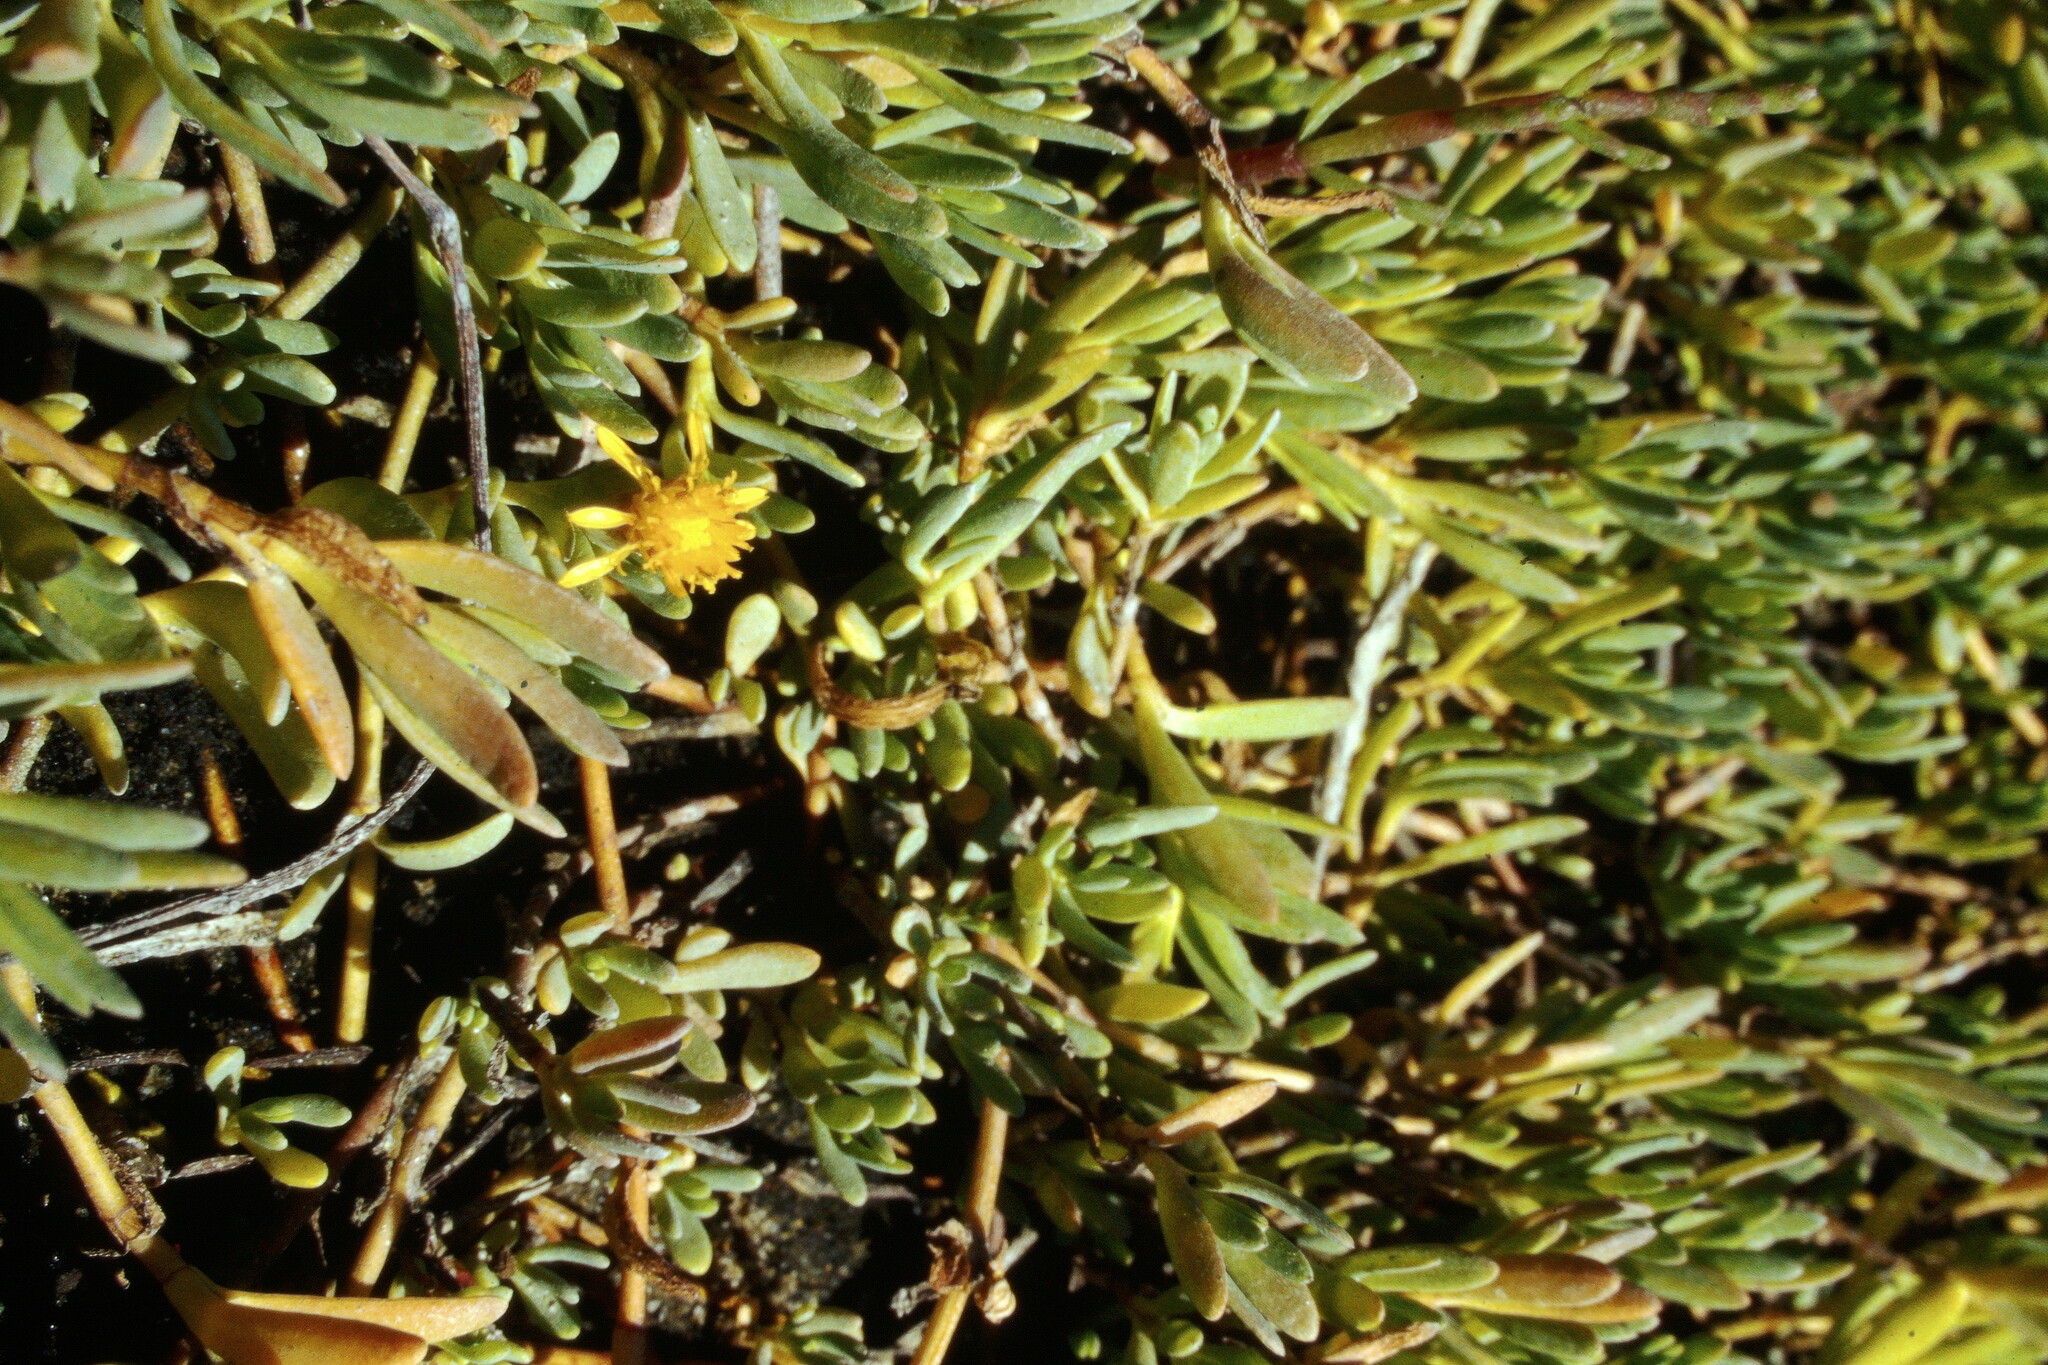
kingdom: Plantae
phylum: Tracheophyta
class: Magnoliopsida
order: Asterales
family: Asteraceae
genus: Jaumea
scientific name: Jaumea carnosa
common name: Fleshy jaumea
